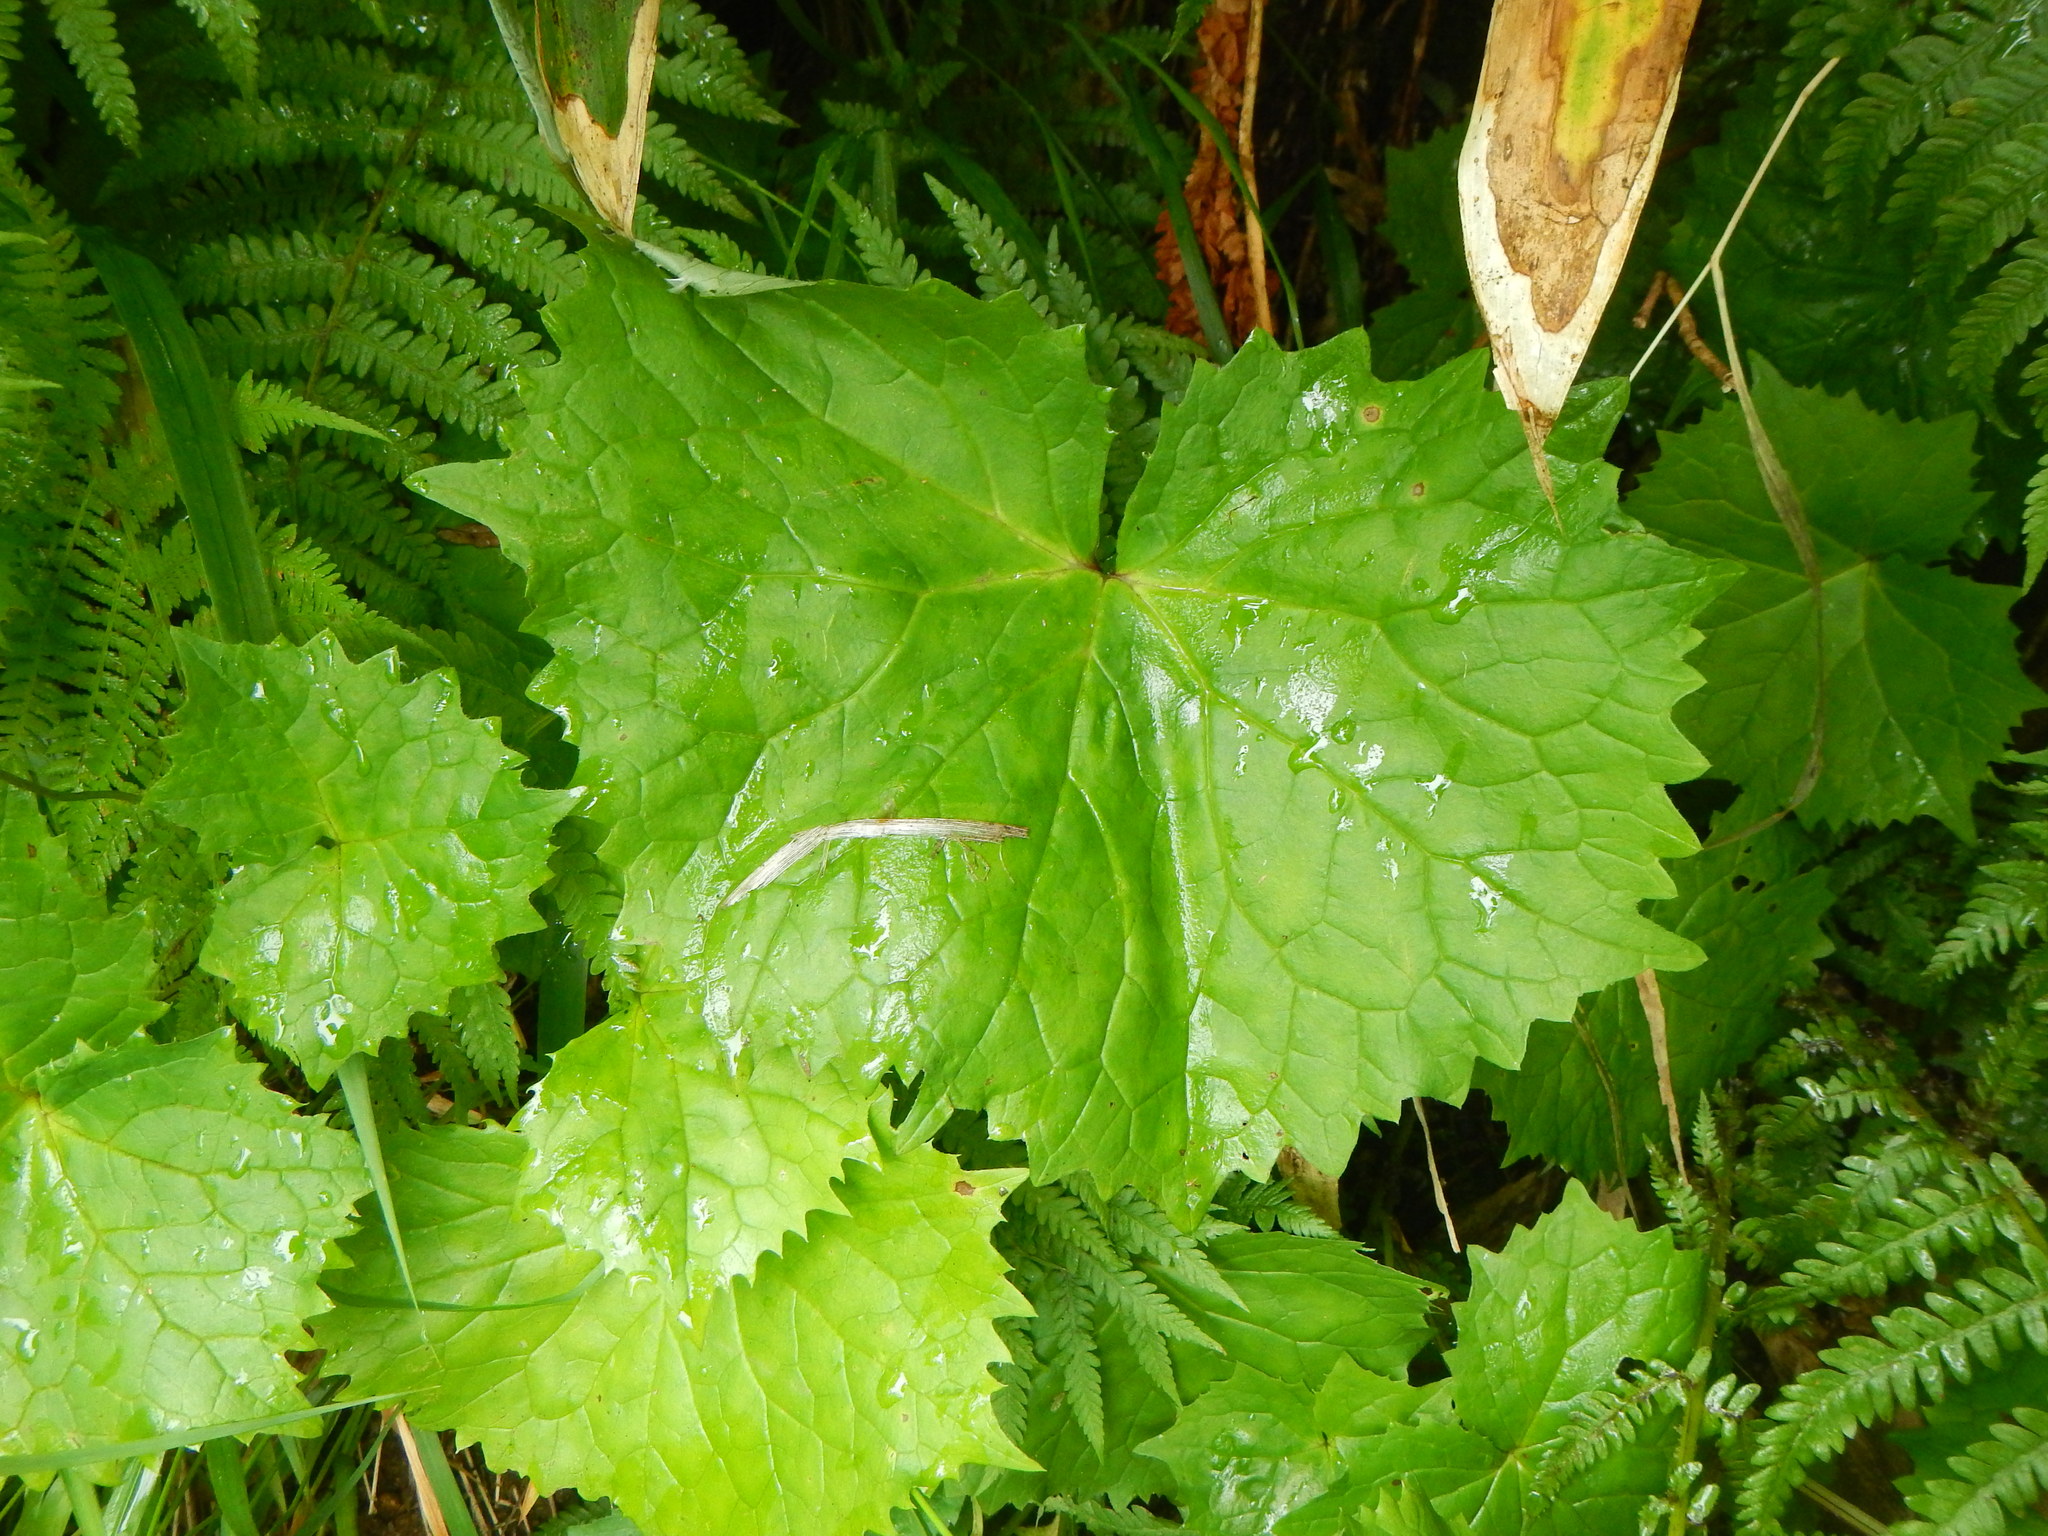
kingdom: Plantae
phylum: Tracheophyta
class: Magnoliopsida
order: Asterales
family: Asteraceae
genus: Parasenecio
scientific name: Parasenecio adenostyloides
